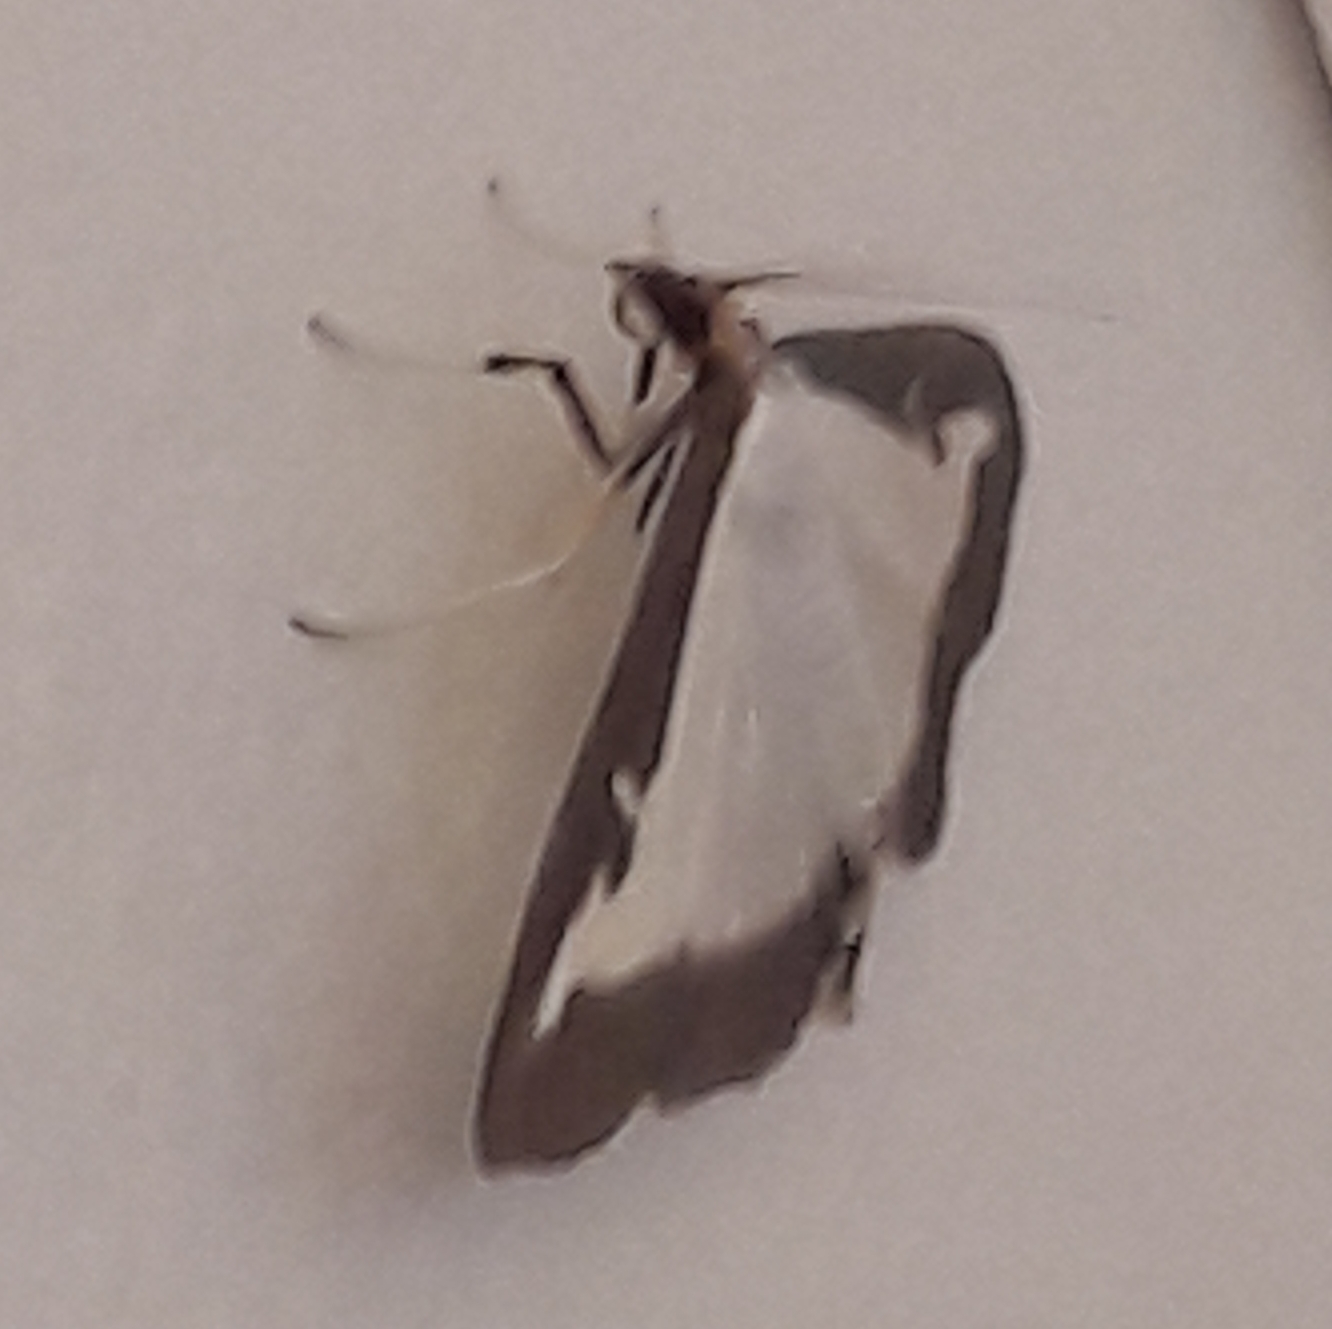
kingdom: Animalia
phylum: Arthropoda
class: Insecta
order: Lepidoptera
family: Crambidae
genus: Cydalima
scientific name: Cydalima perspectalis
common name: Box tree moth
